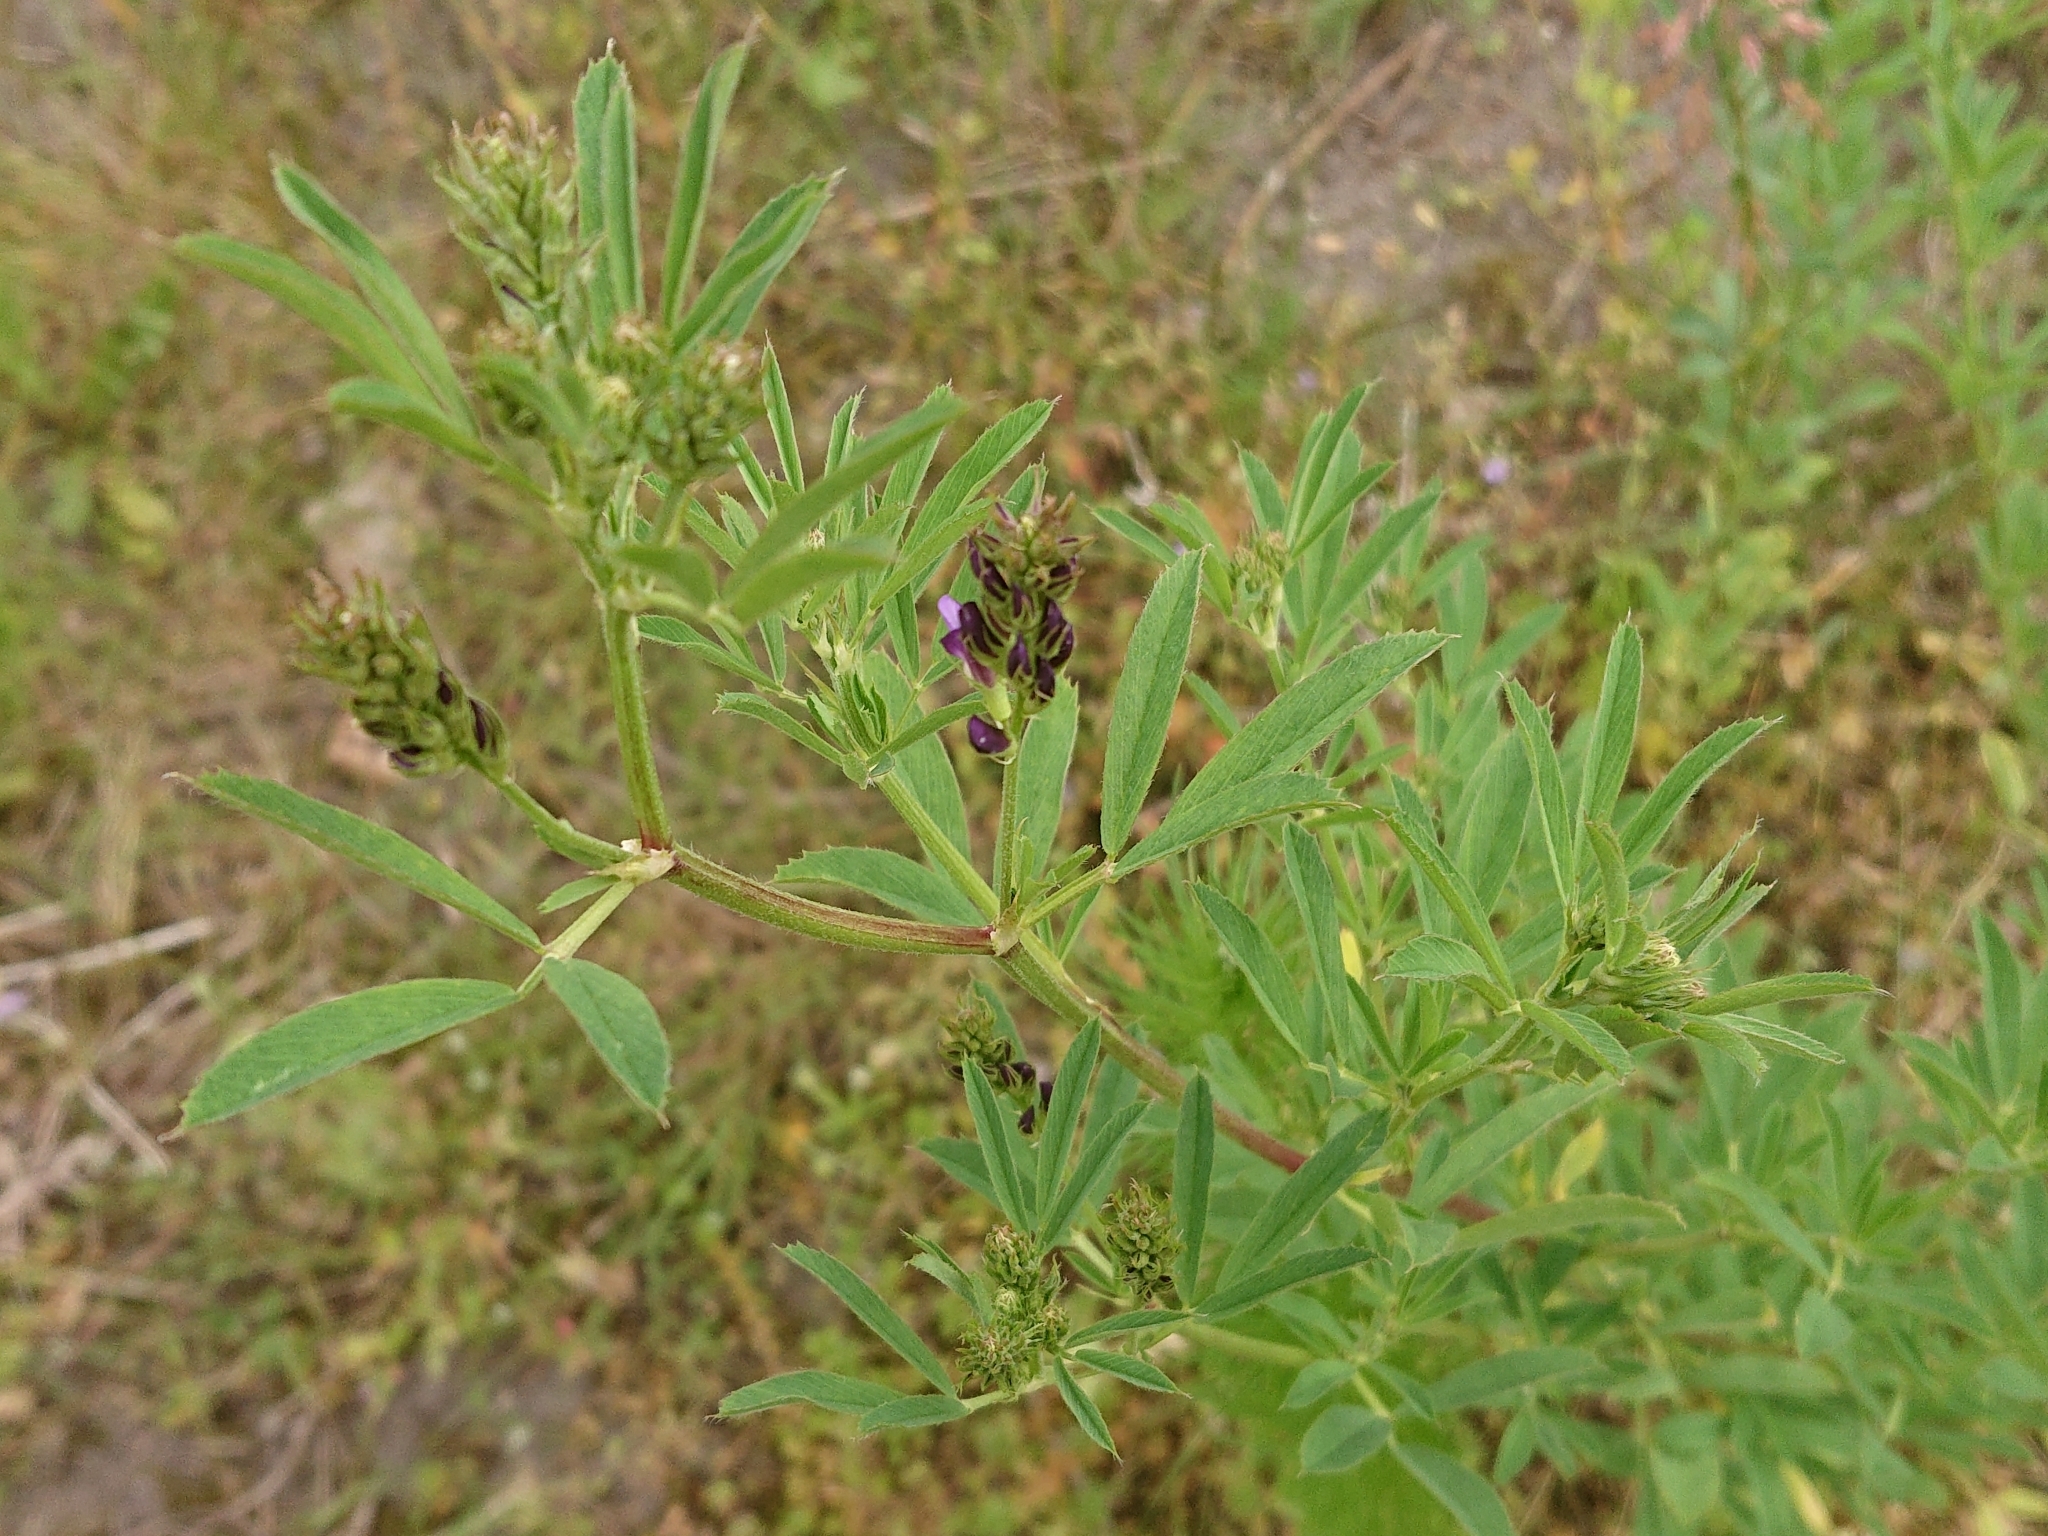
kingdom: Plantae
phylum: Tracheophyta
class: Magnoliopsida
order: Fabales
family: Fabaceae
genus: Medicago
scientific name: Medicago sativa
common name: Alfalfa
